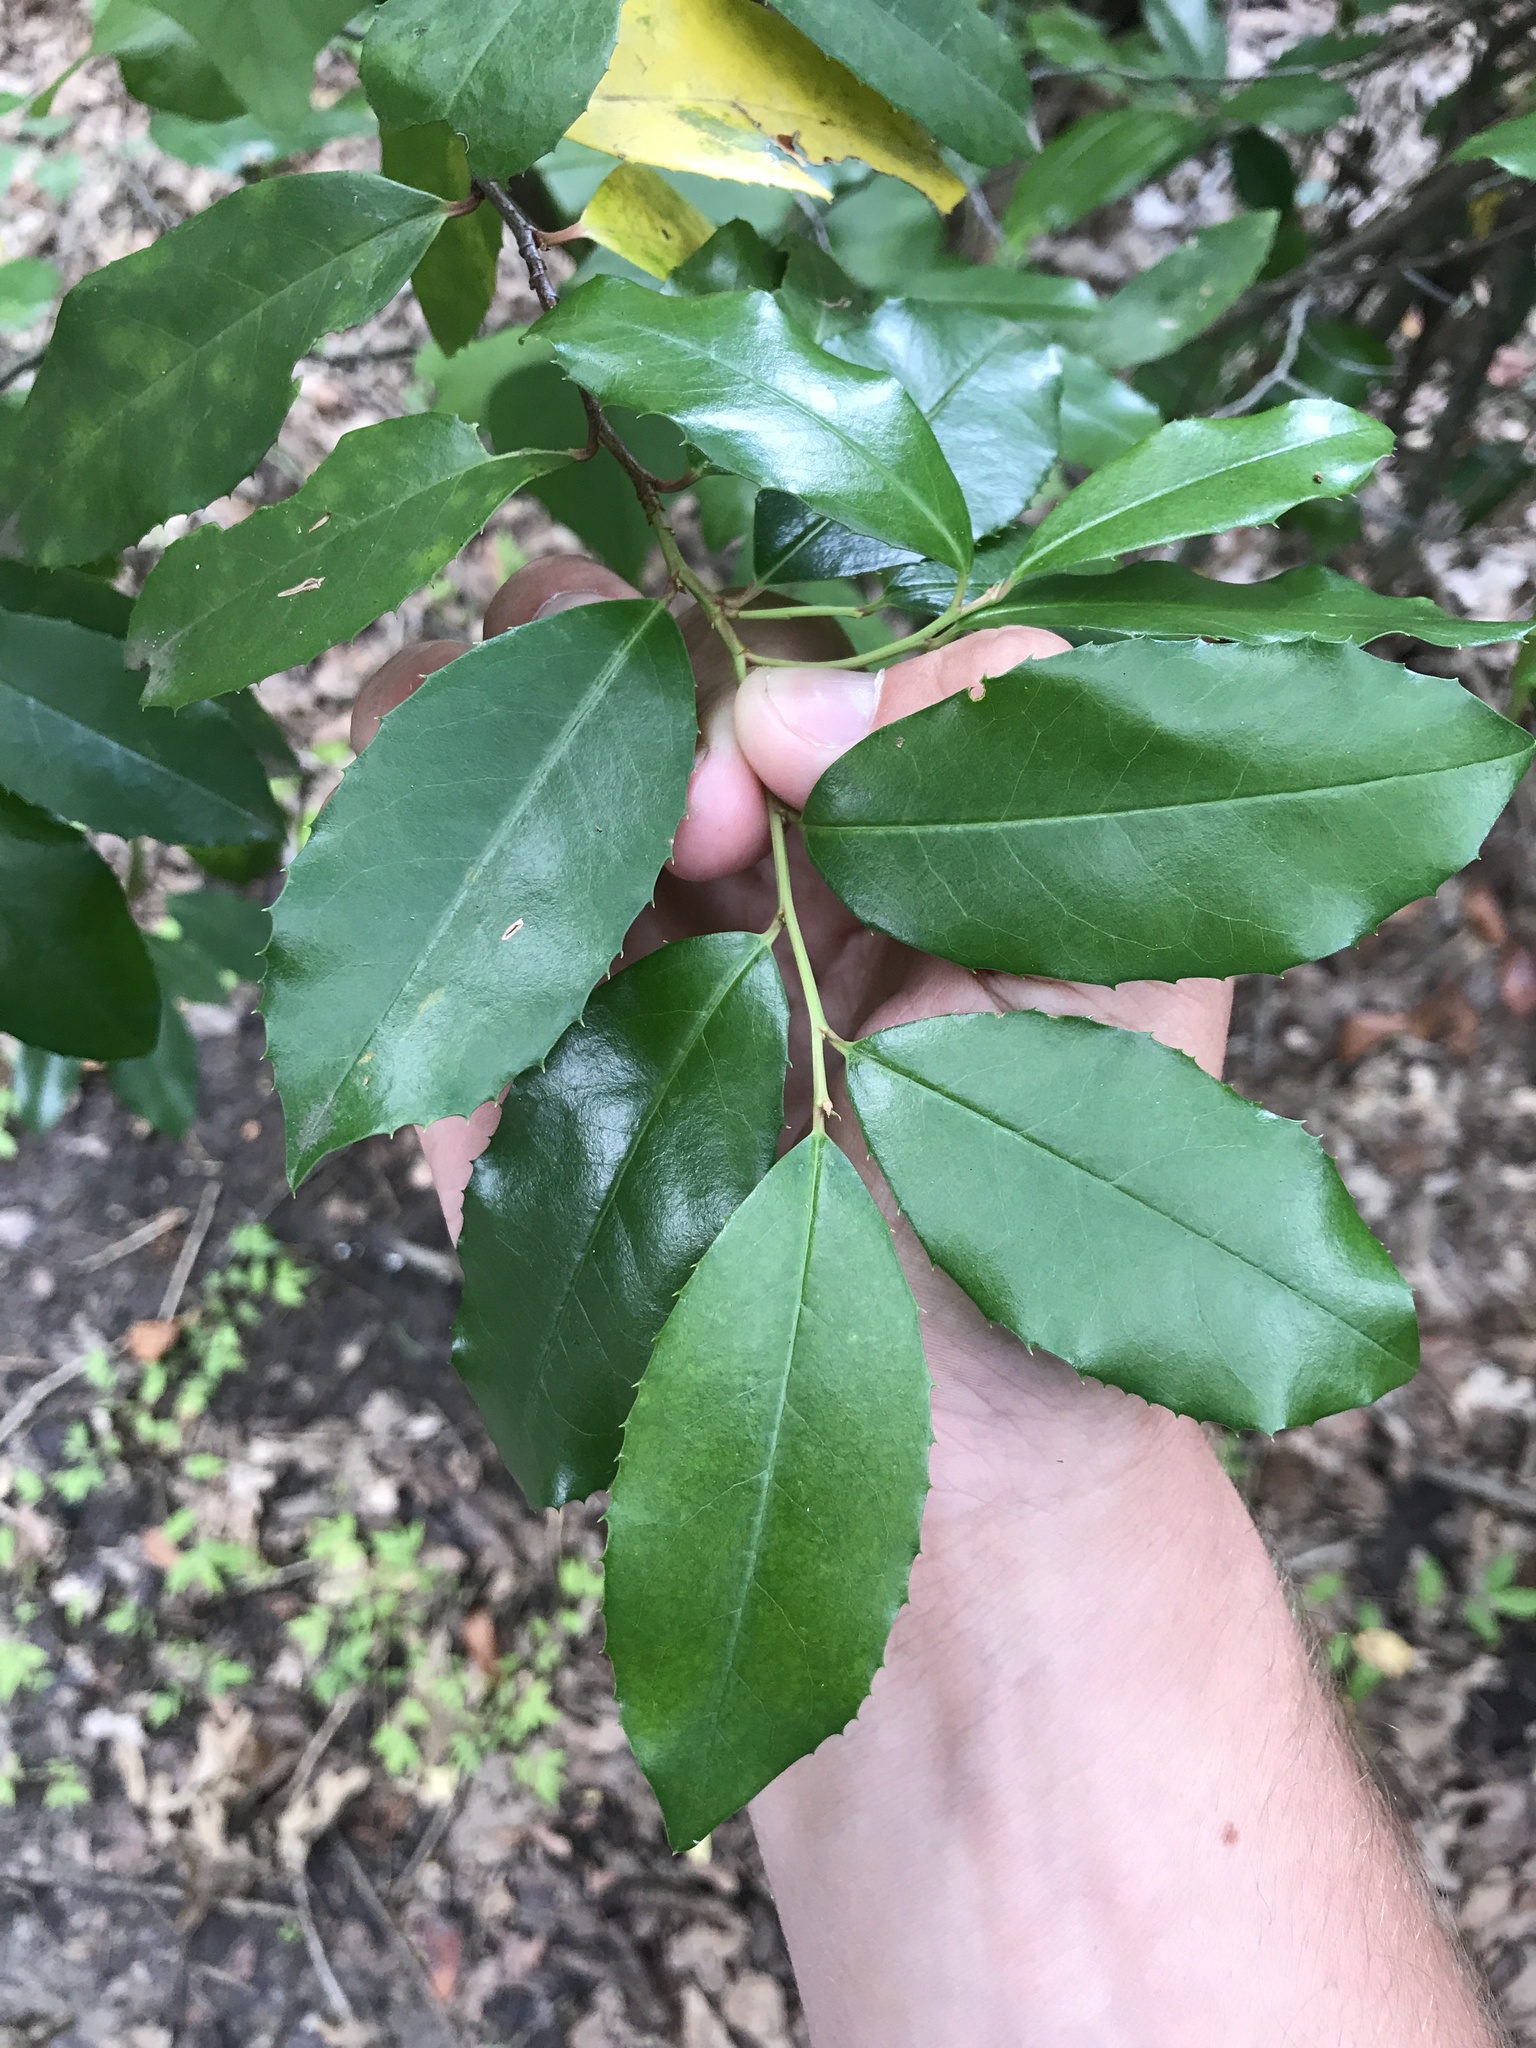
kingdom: Plantae
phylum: Tracheophyta
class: Magnoliopsida
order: Rosales
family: Rosaceae
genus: Prunus
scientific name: Prunus caroliniana
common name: Carolina laurel cherry
